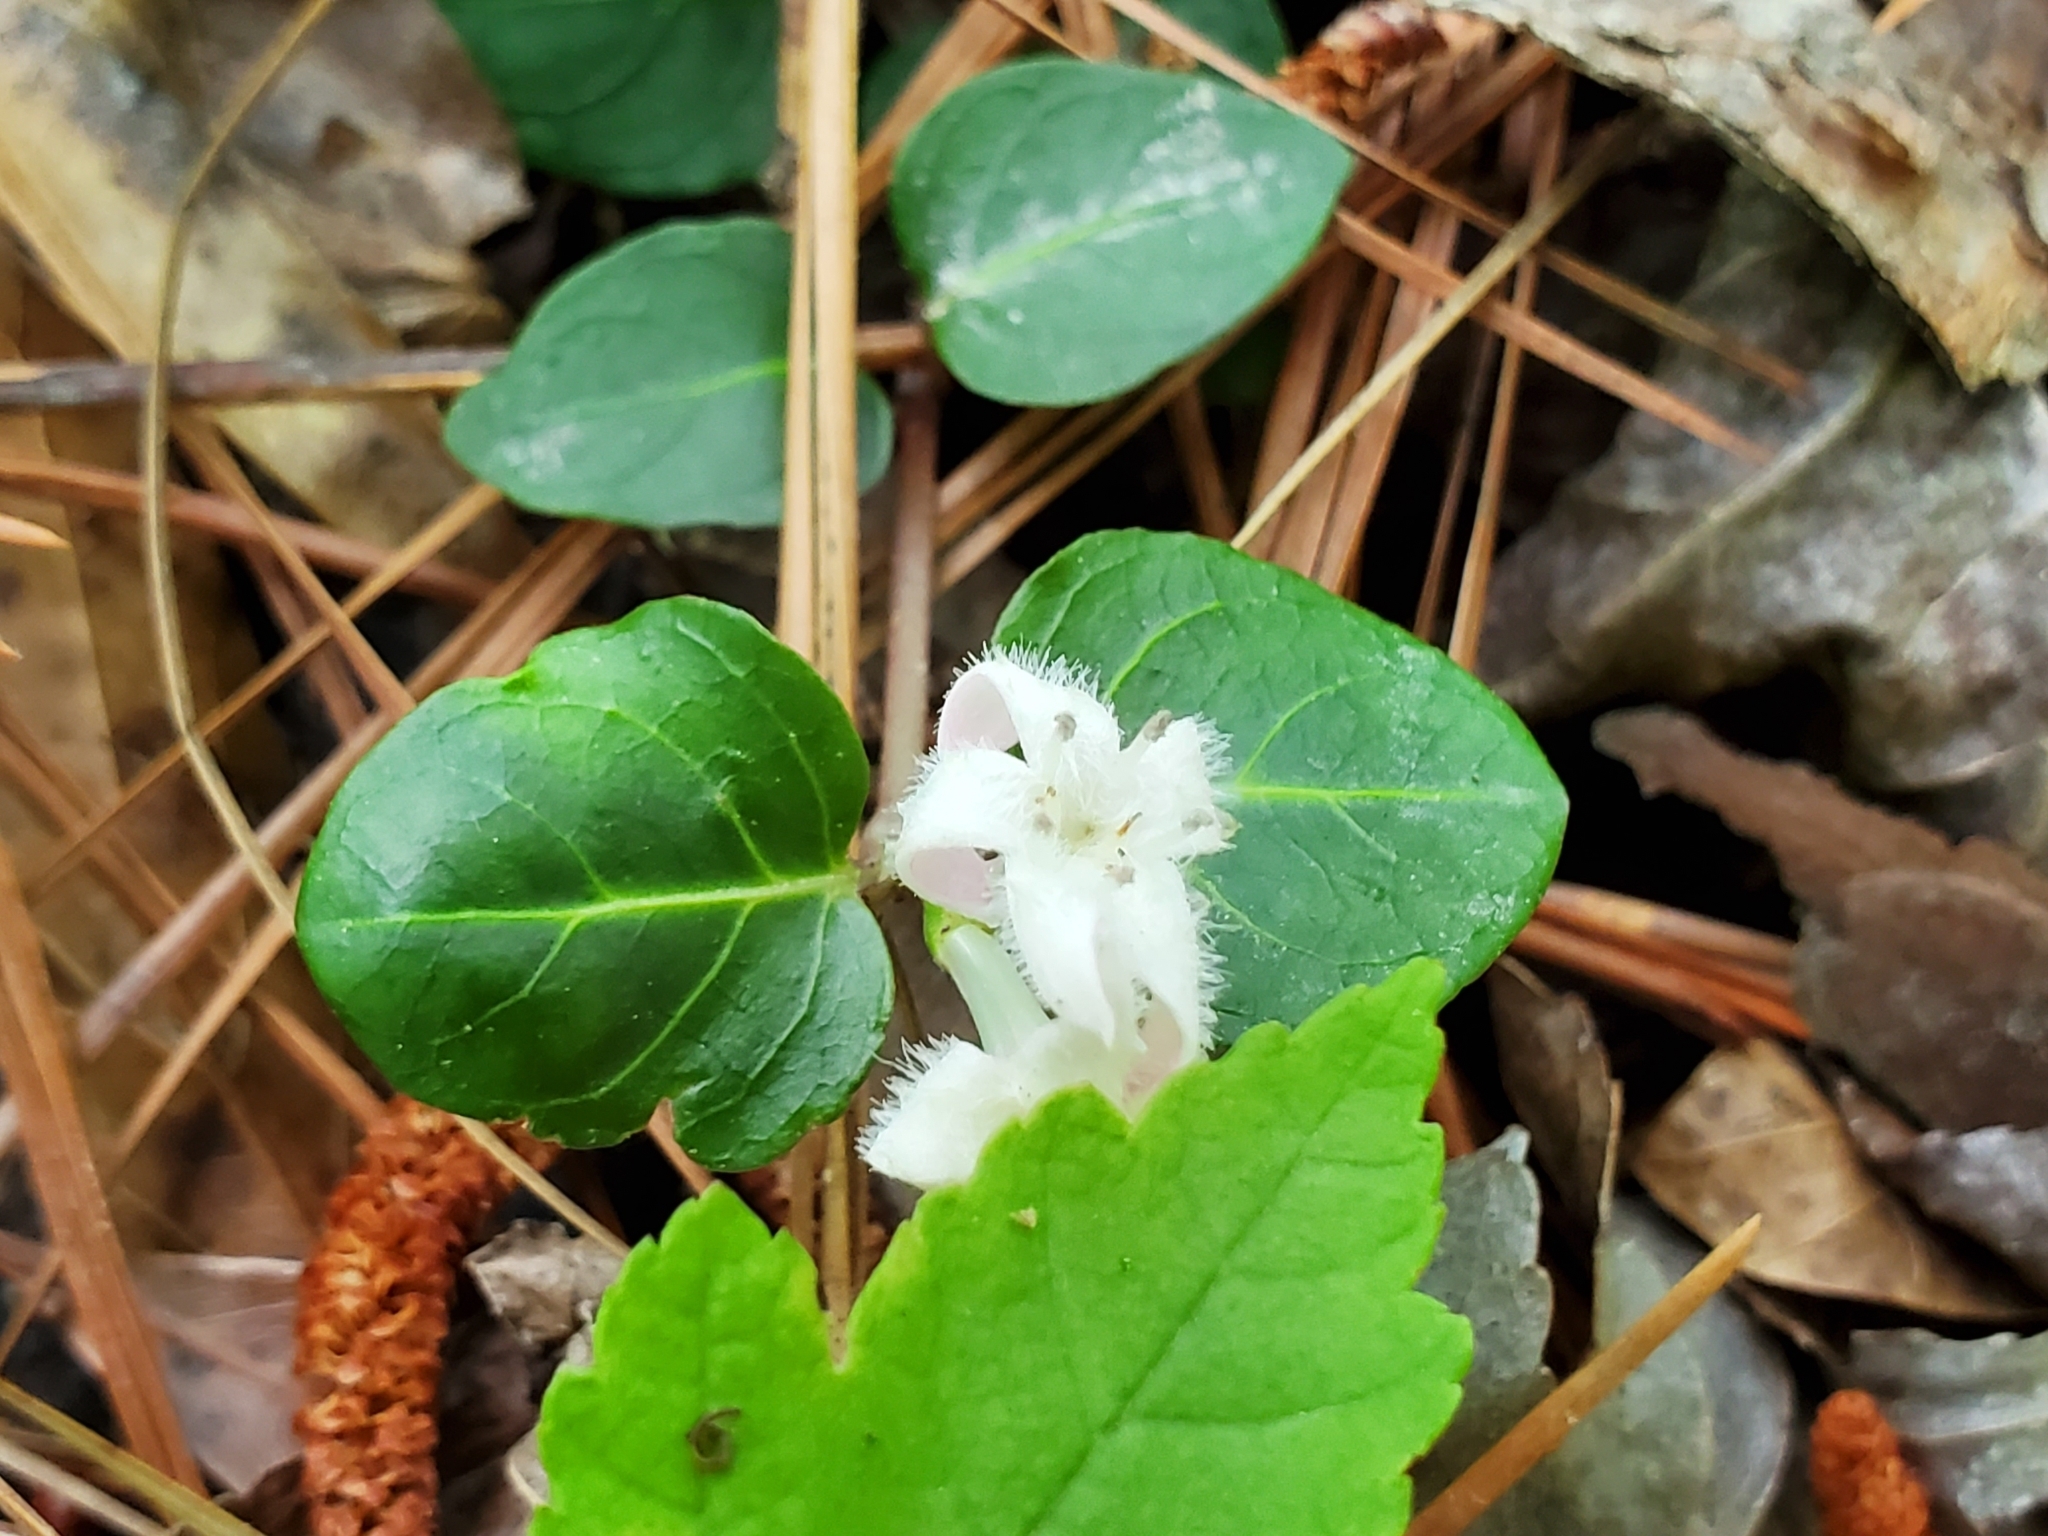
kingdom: Plantae
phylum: Tracheophyta
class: Magnoliopsida
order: Gentianales
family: Rubiaceae
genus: Mitchella
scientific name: Mitchella repens
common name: Partridge-berry
